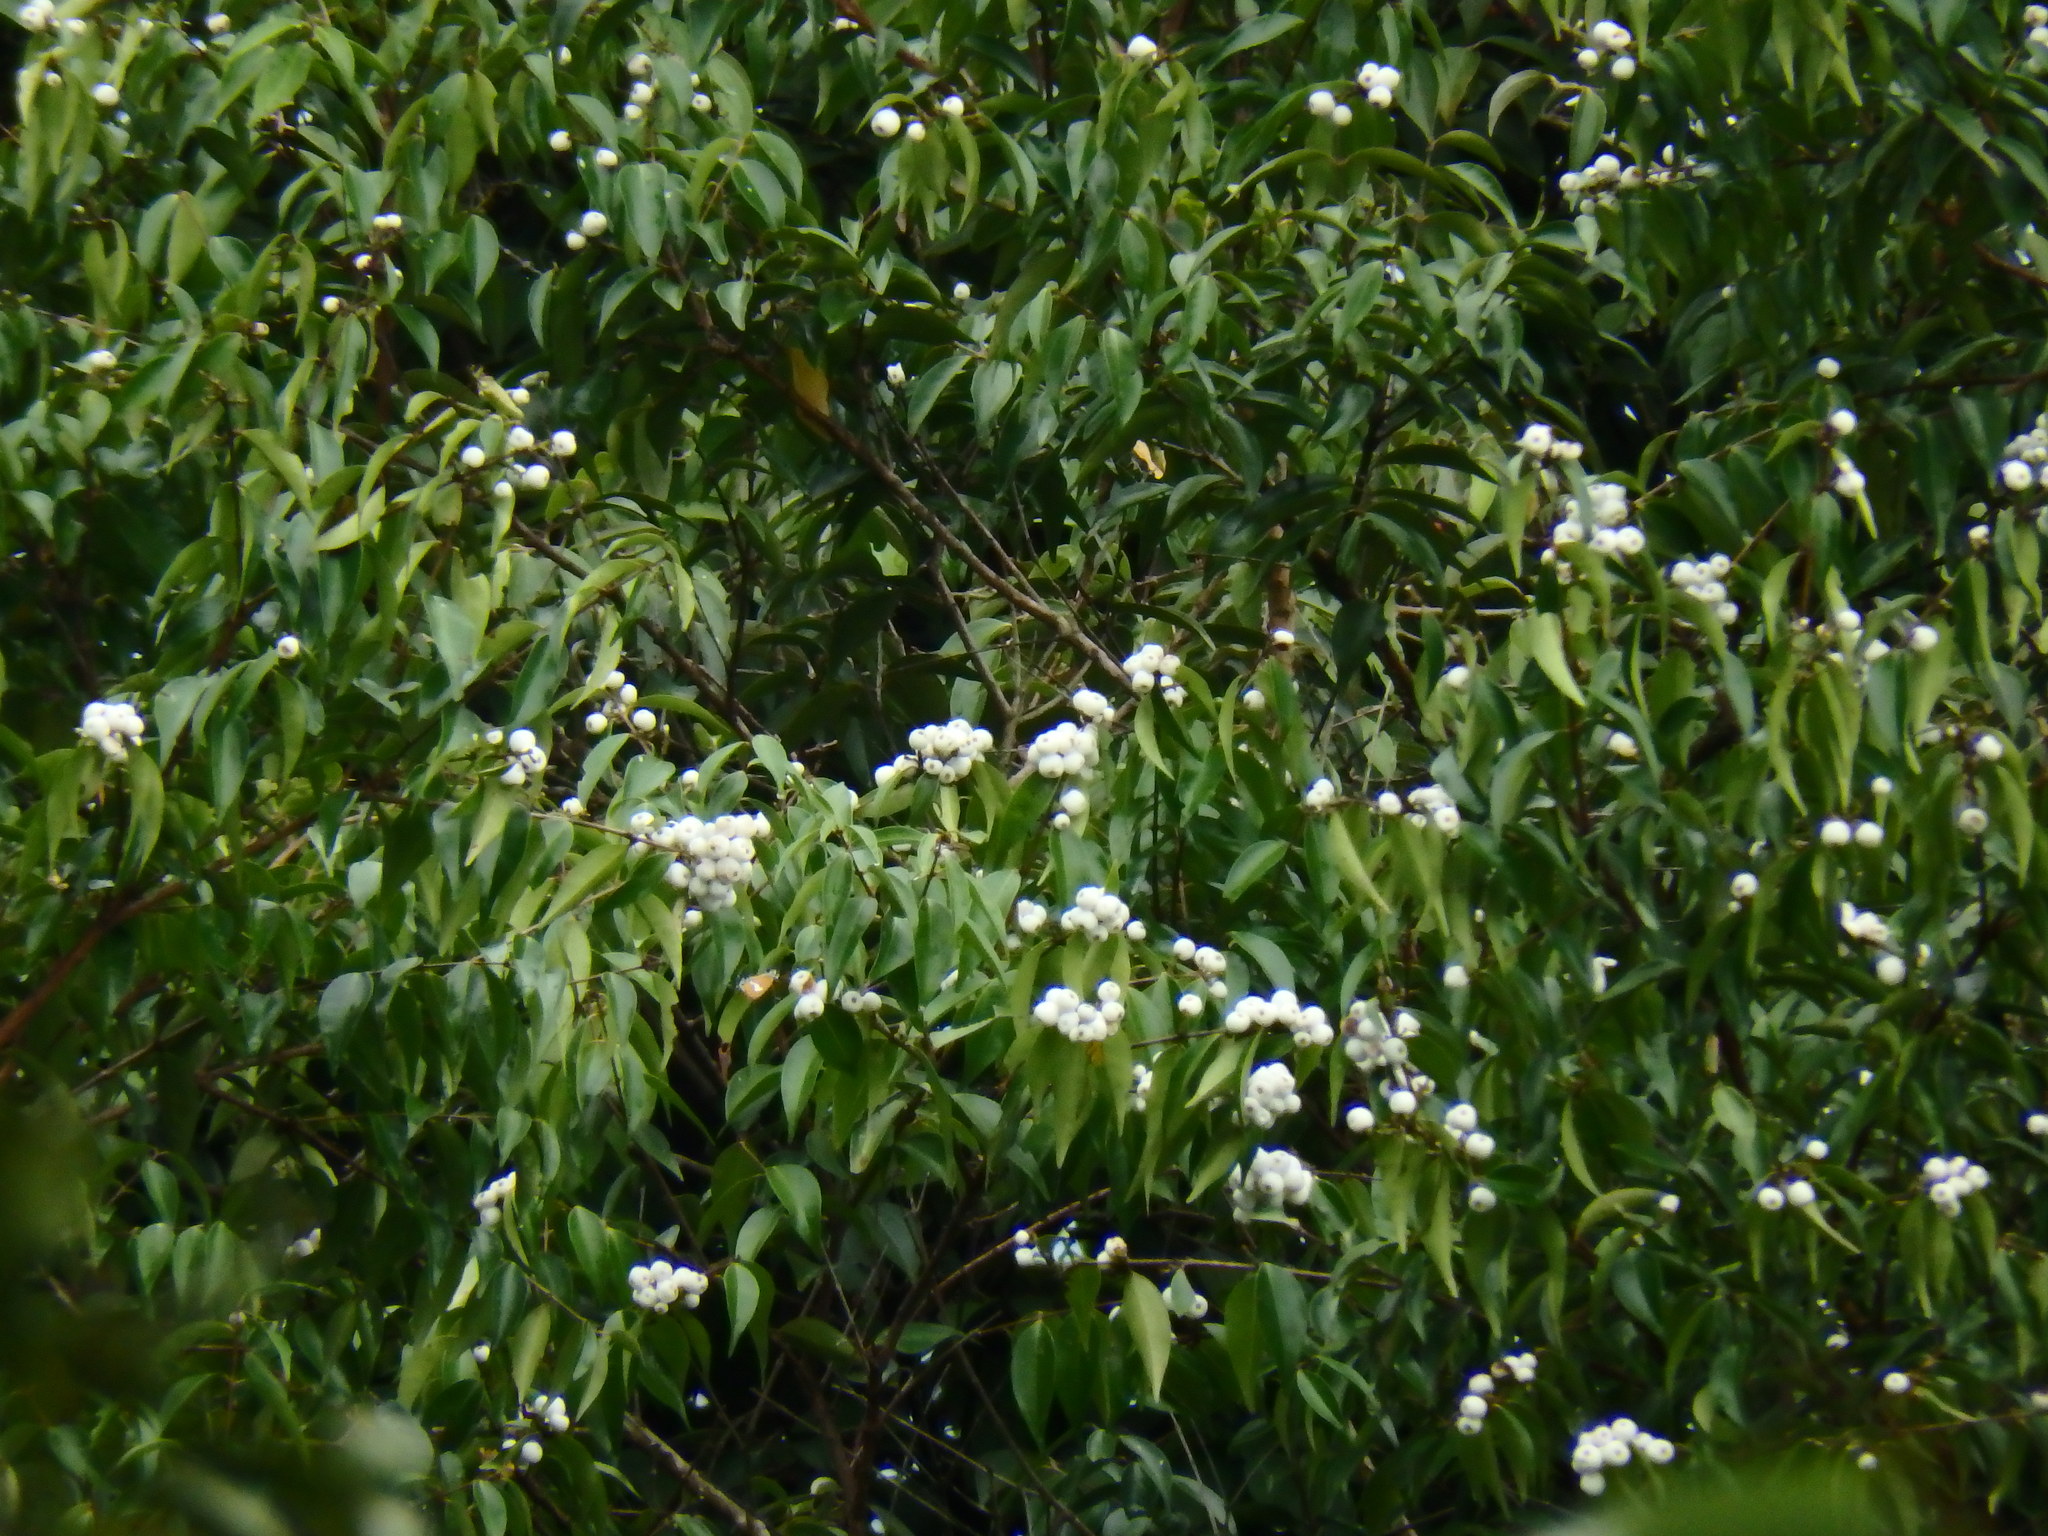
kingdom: Plantae
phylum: Tracheophyta
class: Magnoliopsida
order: Myrtales
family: Myrtaceae
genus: Syzygium
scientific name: Syzygium zeylanicum
